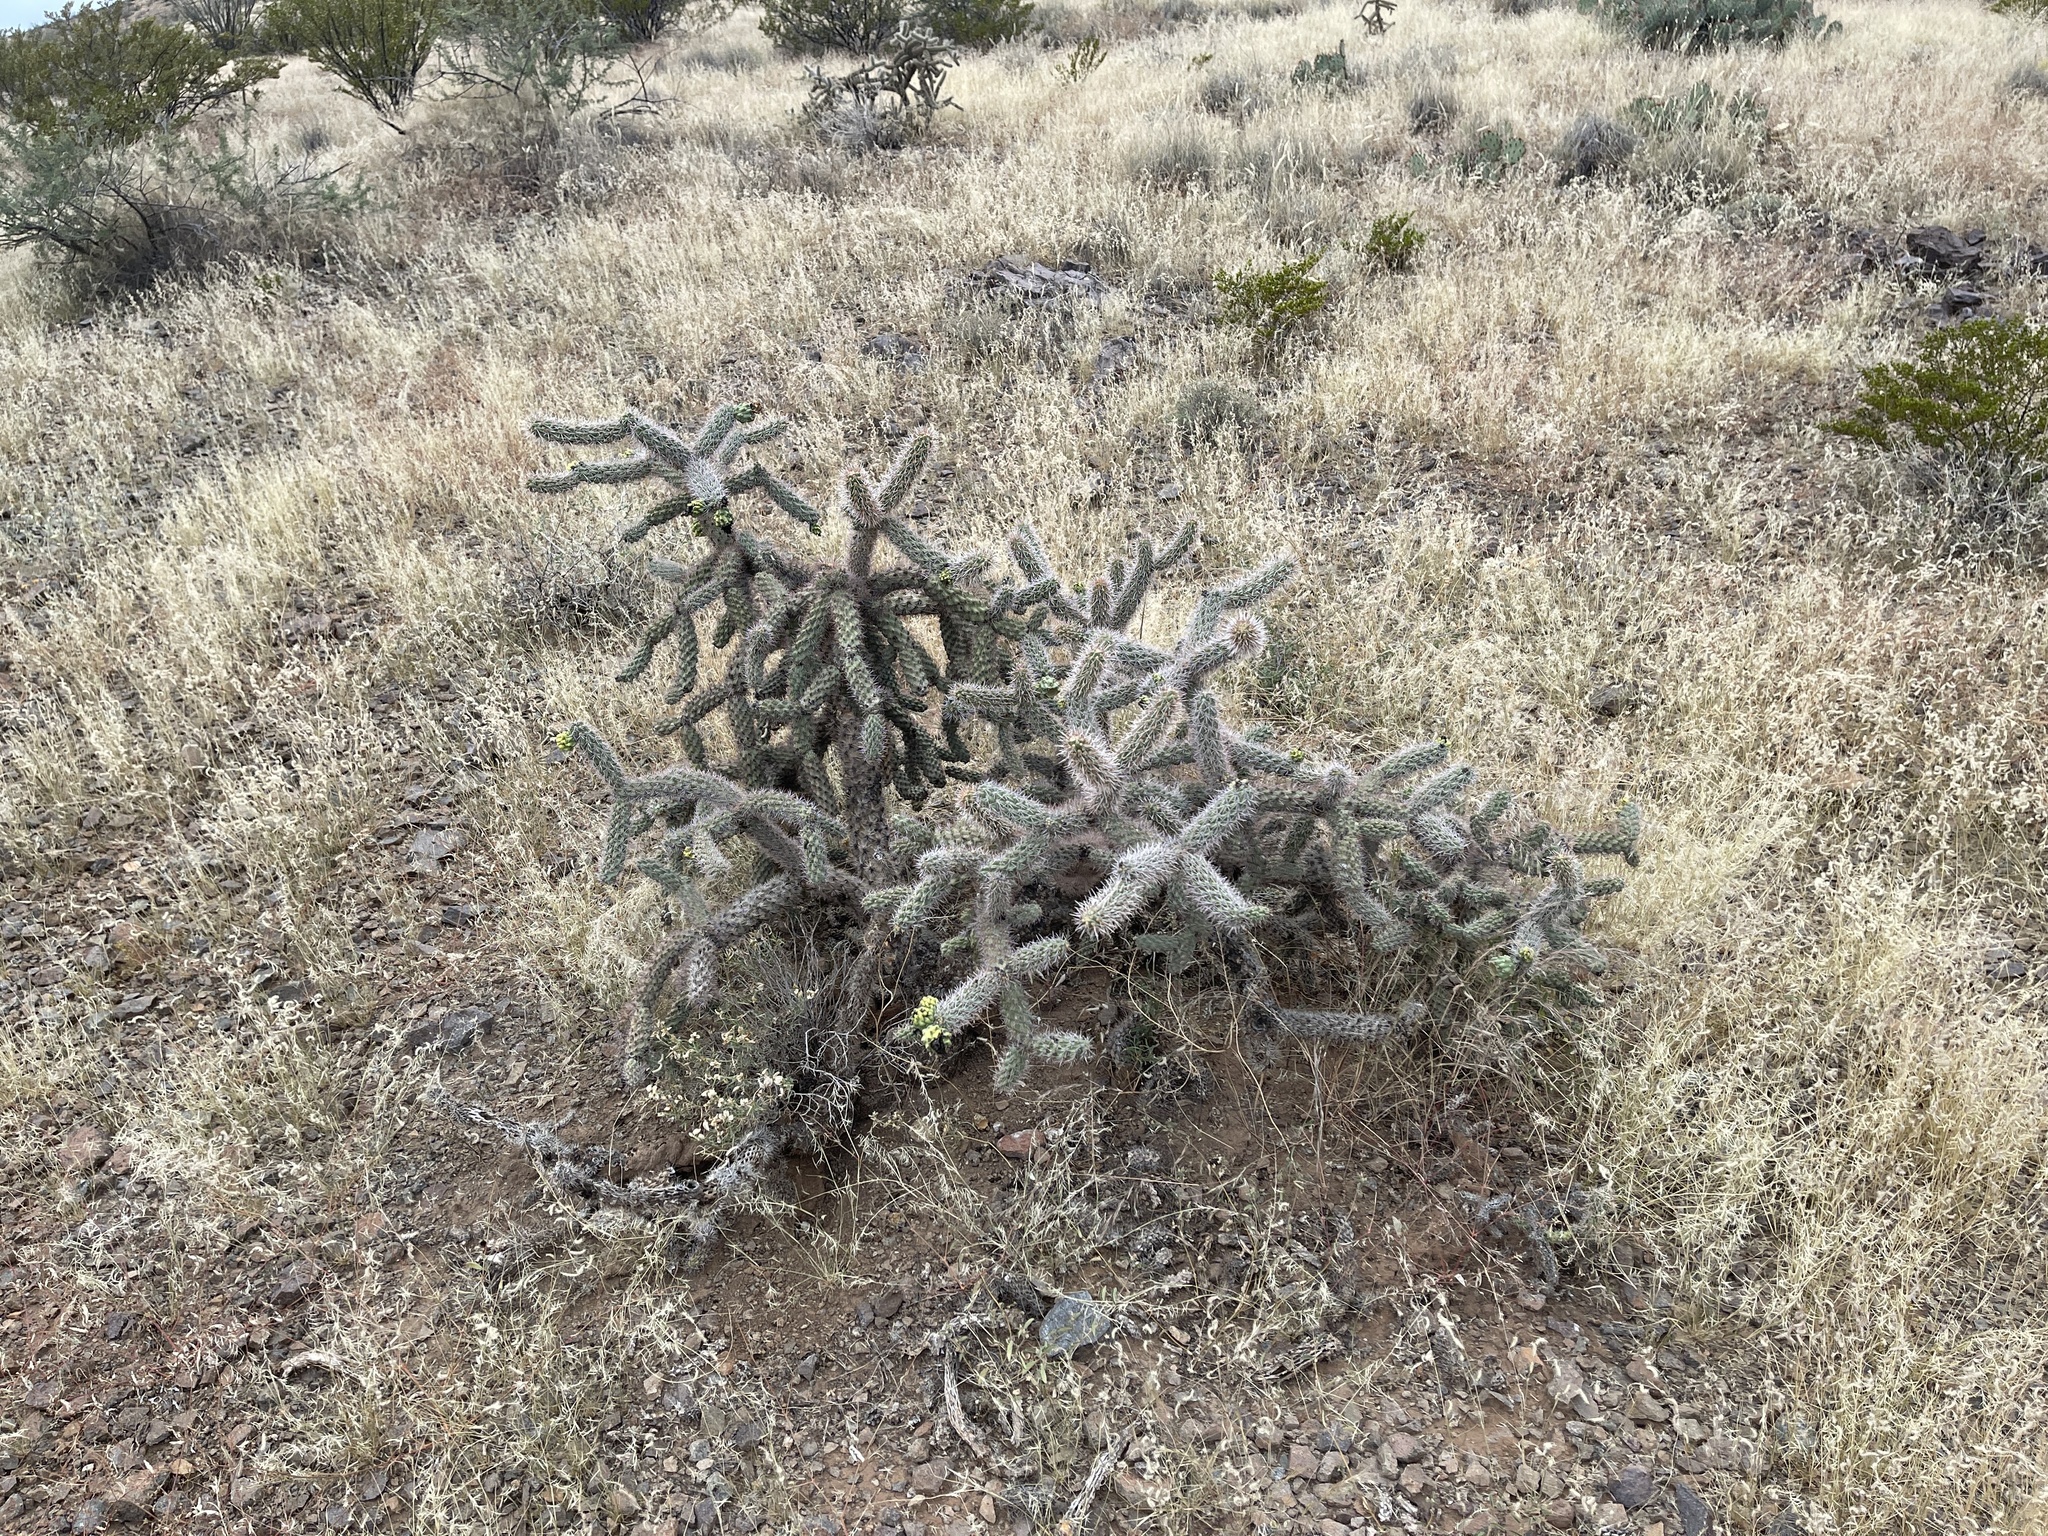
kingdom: Plantae
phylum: Tracheophyta
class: Magnoliopsida
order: Caryophyllales
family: Cactaceae
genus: Cylindropuntia
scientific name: Cylindropuntia imbricata
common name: Candelabrum cactus
